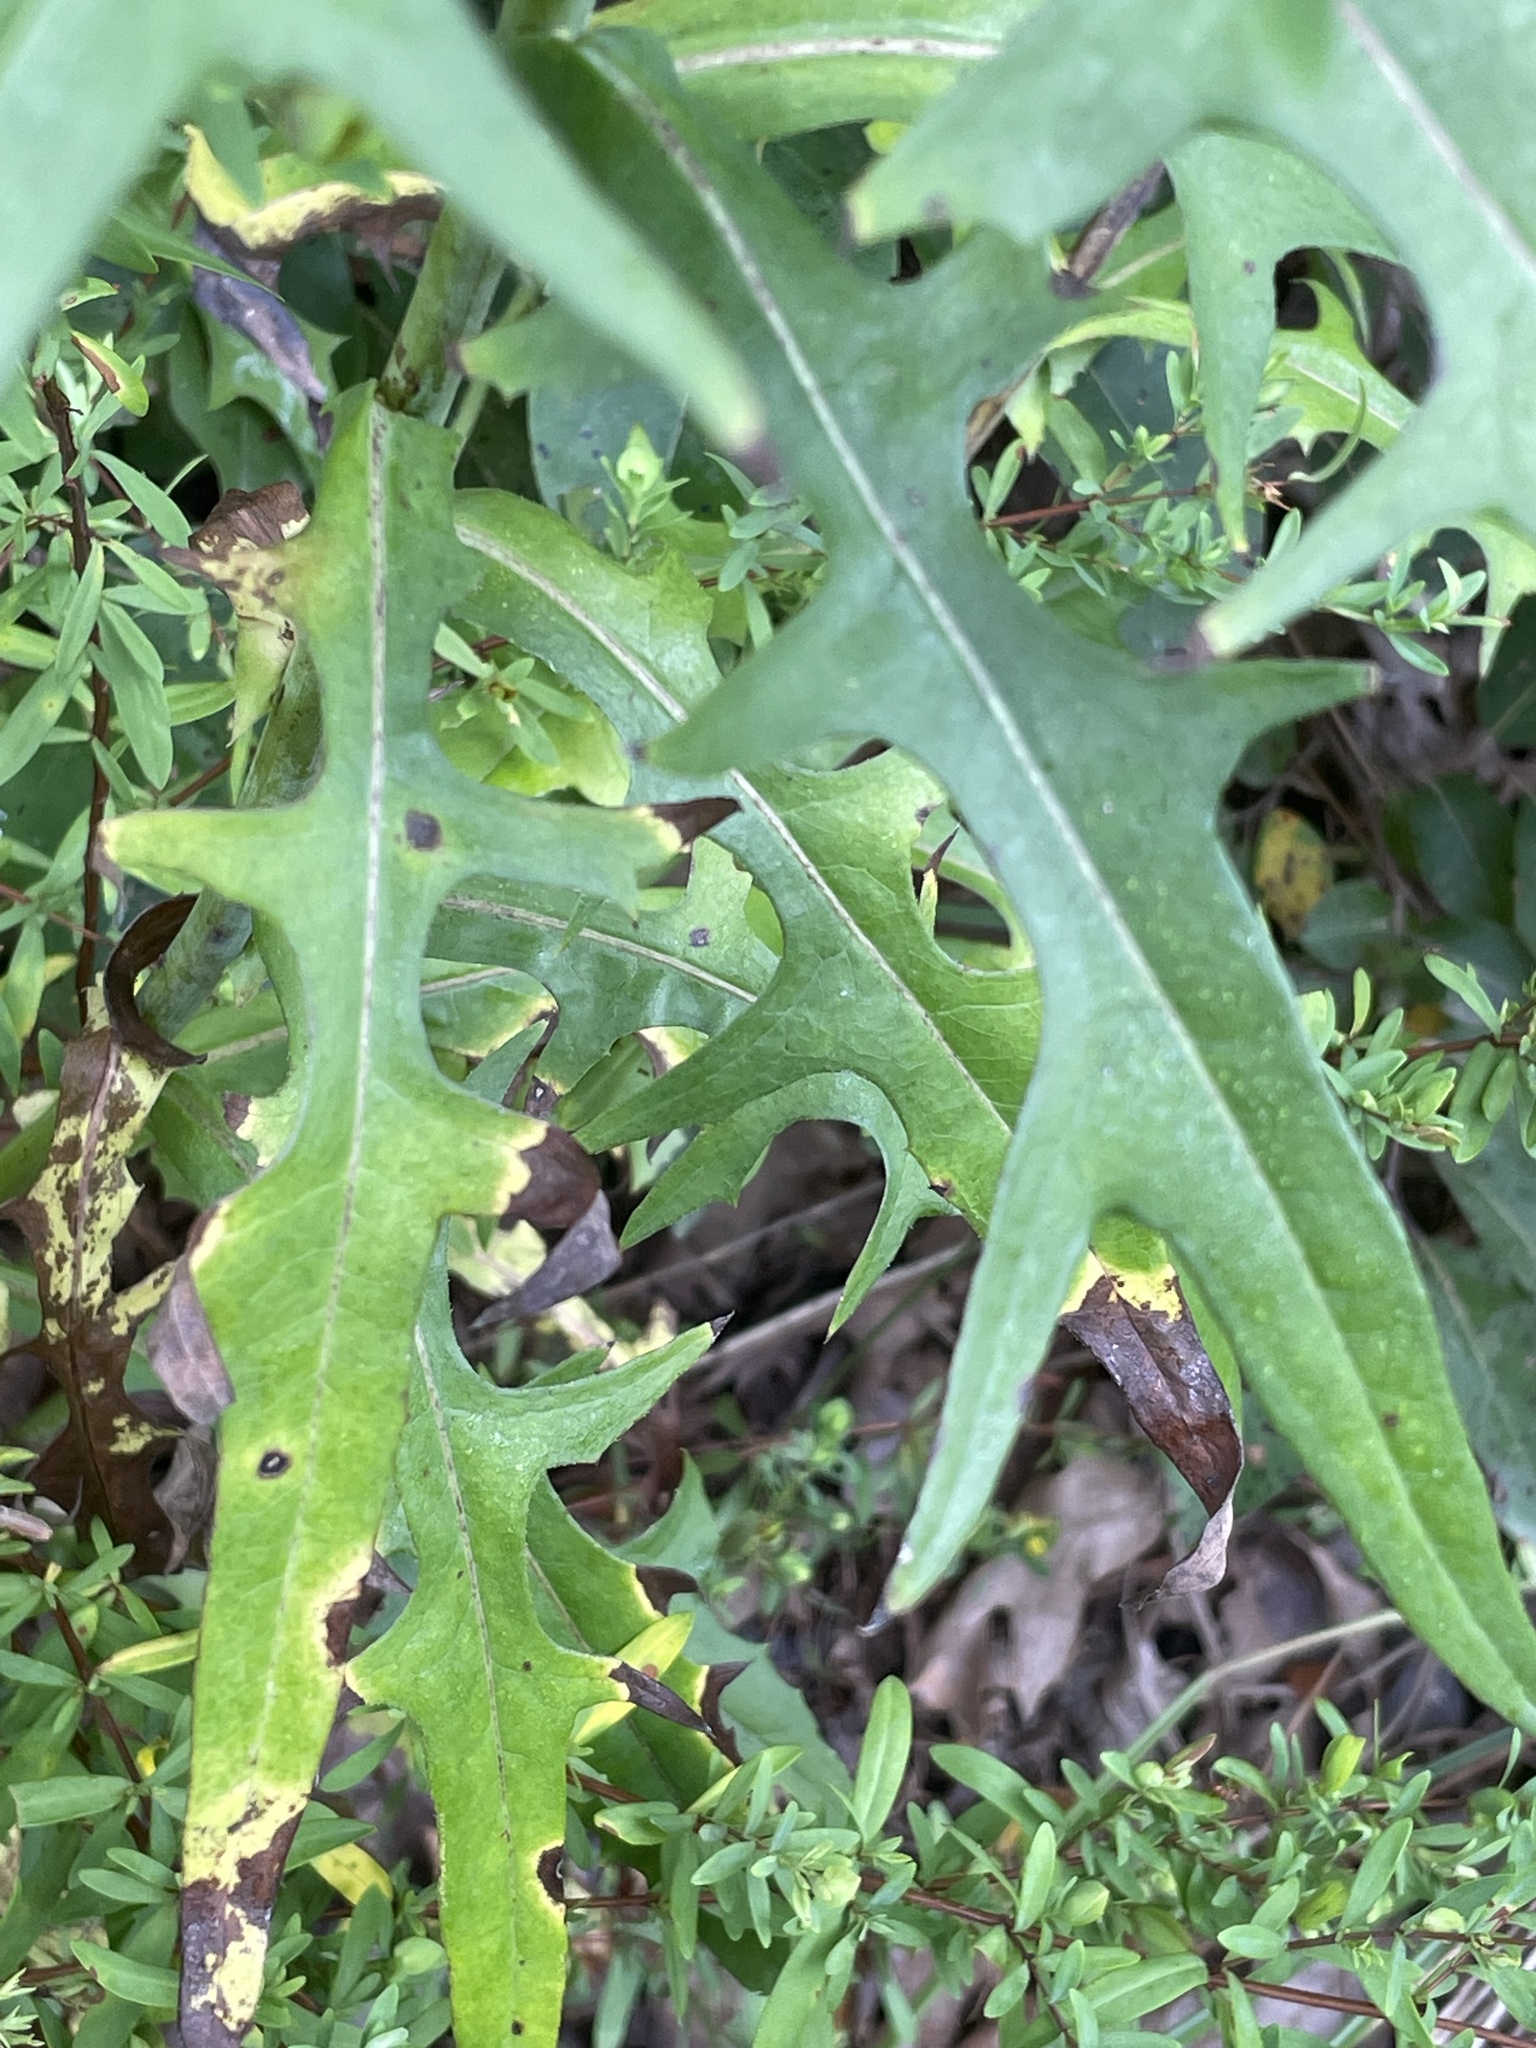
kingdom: Plantae
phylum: Tracheophyta
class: Magnoliopsida
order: Asterales
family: Asteraceae
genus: Lactuca
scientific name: Lactuca canadensis
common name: Canada lettuce
